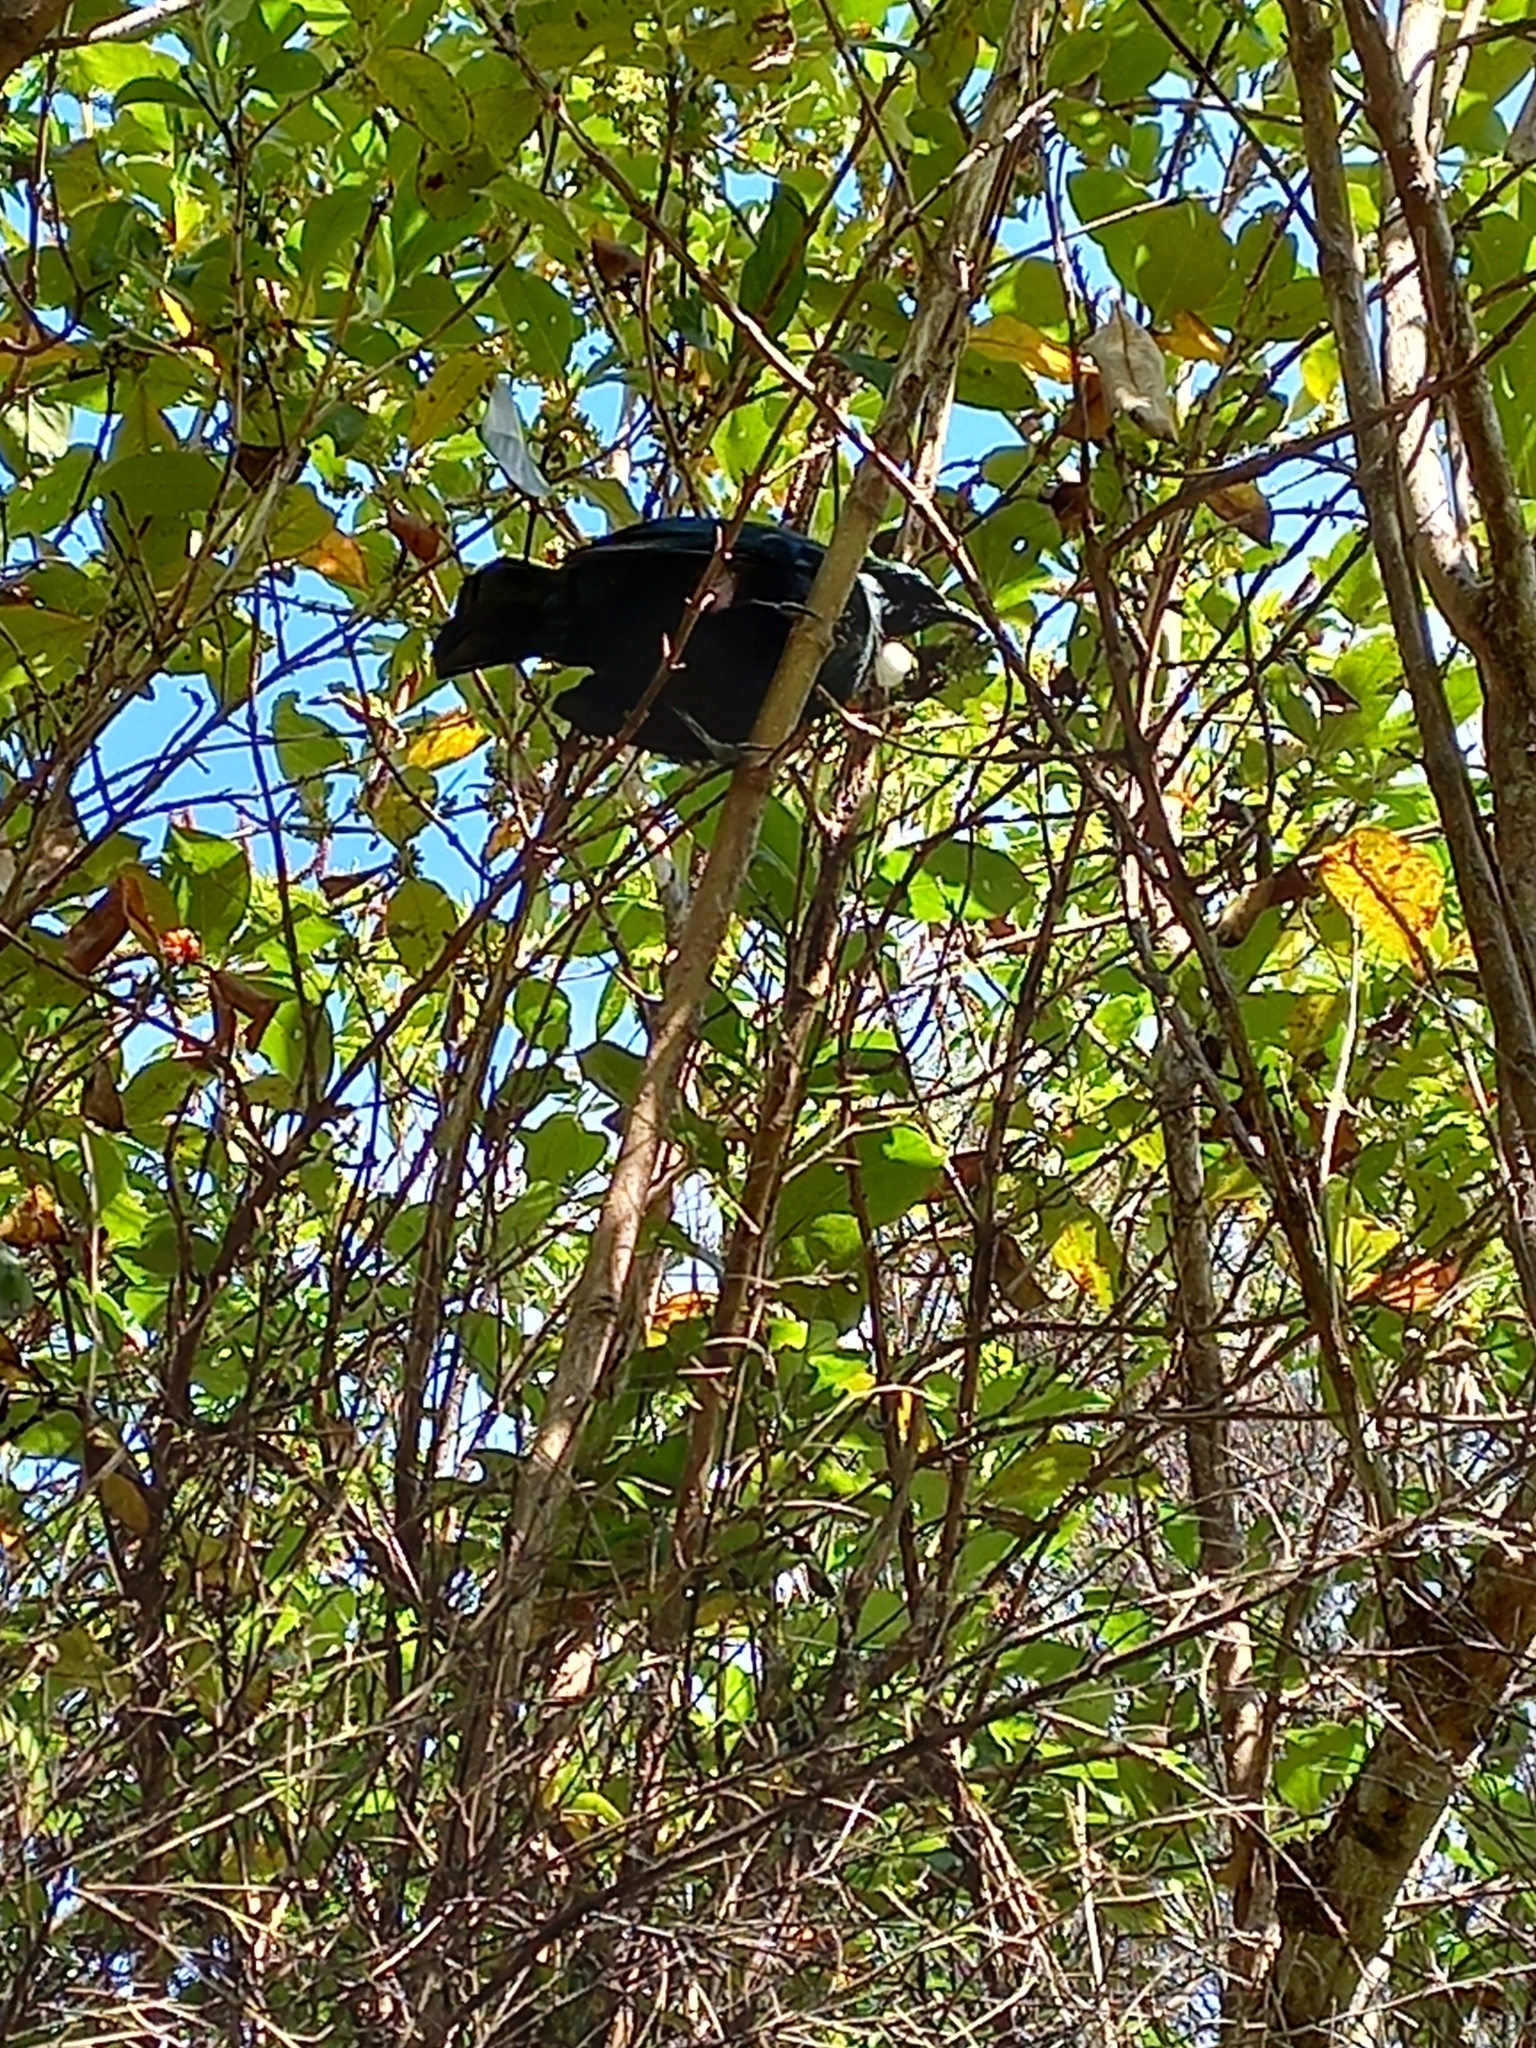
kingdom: Animalia
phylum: Chordata
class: Aves
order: Passeriformes
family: Meliphagidae
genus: Prosthemadera
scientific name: Prosthemadera novaeseelandiae
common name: Tui
